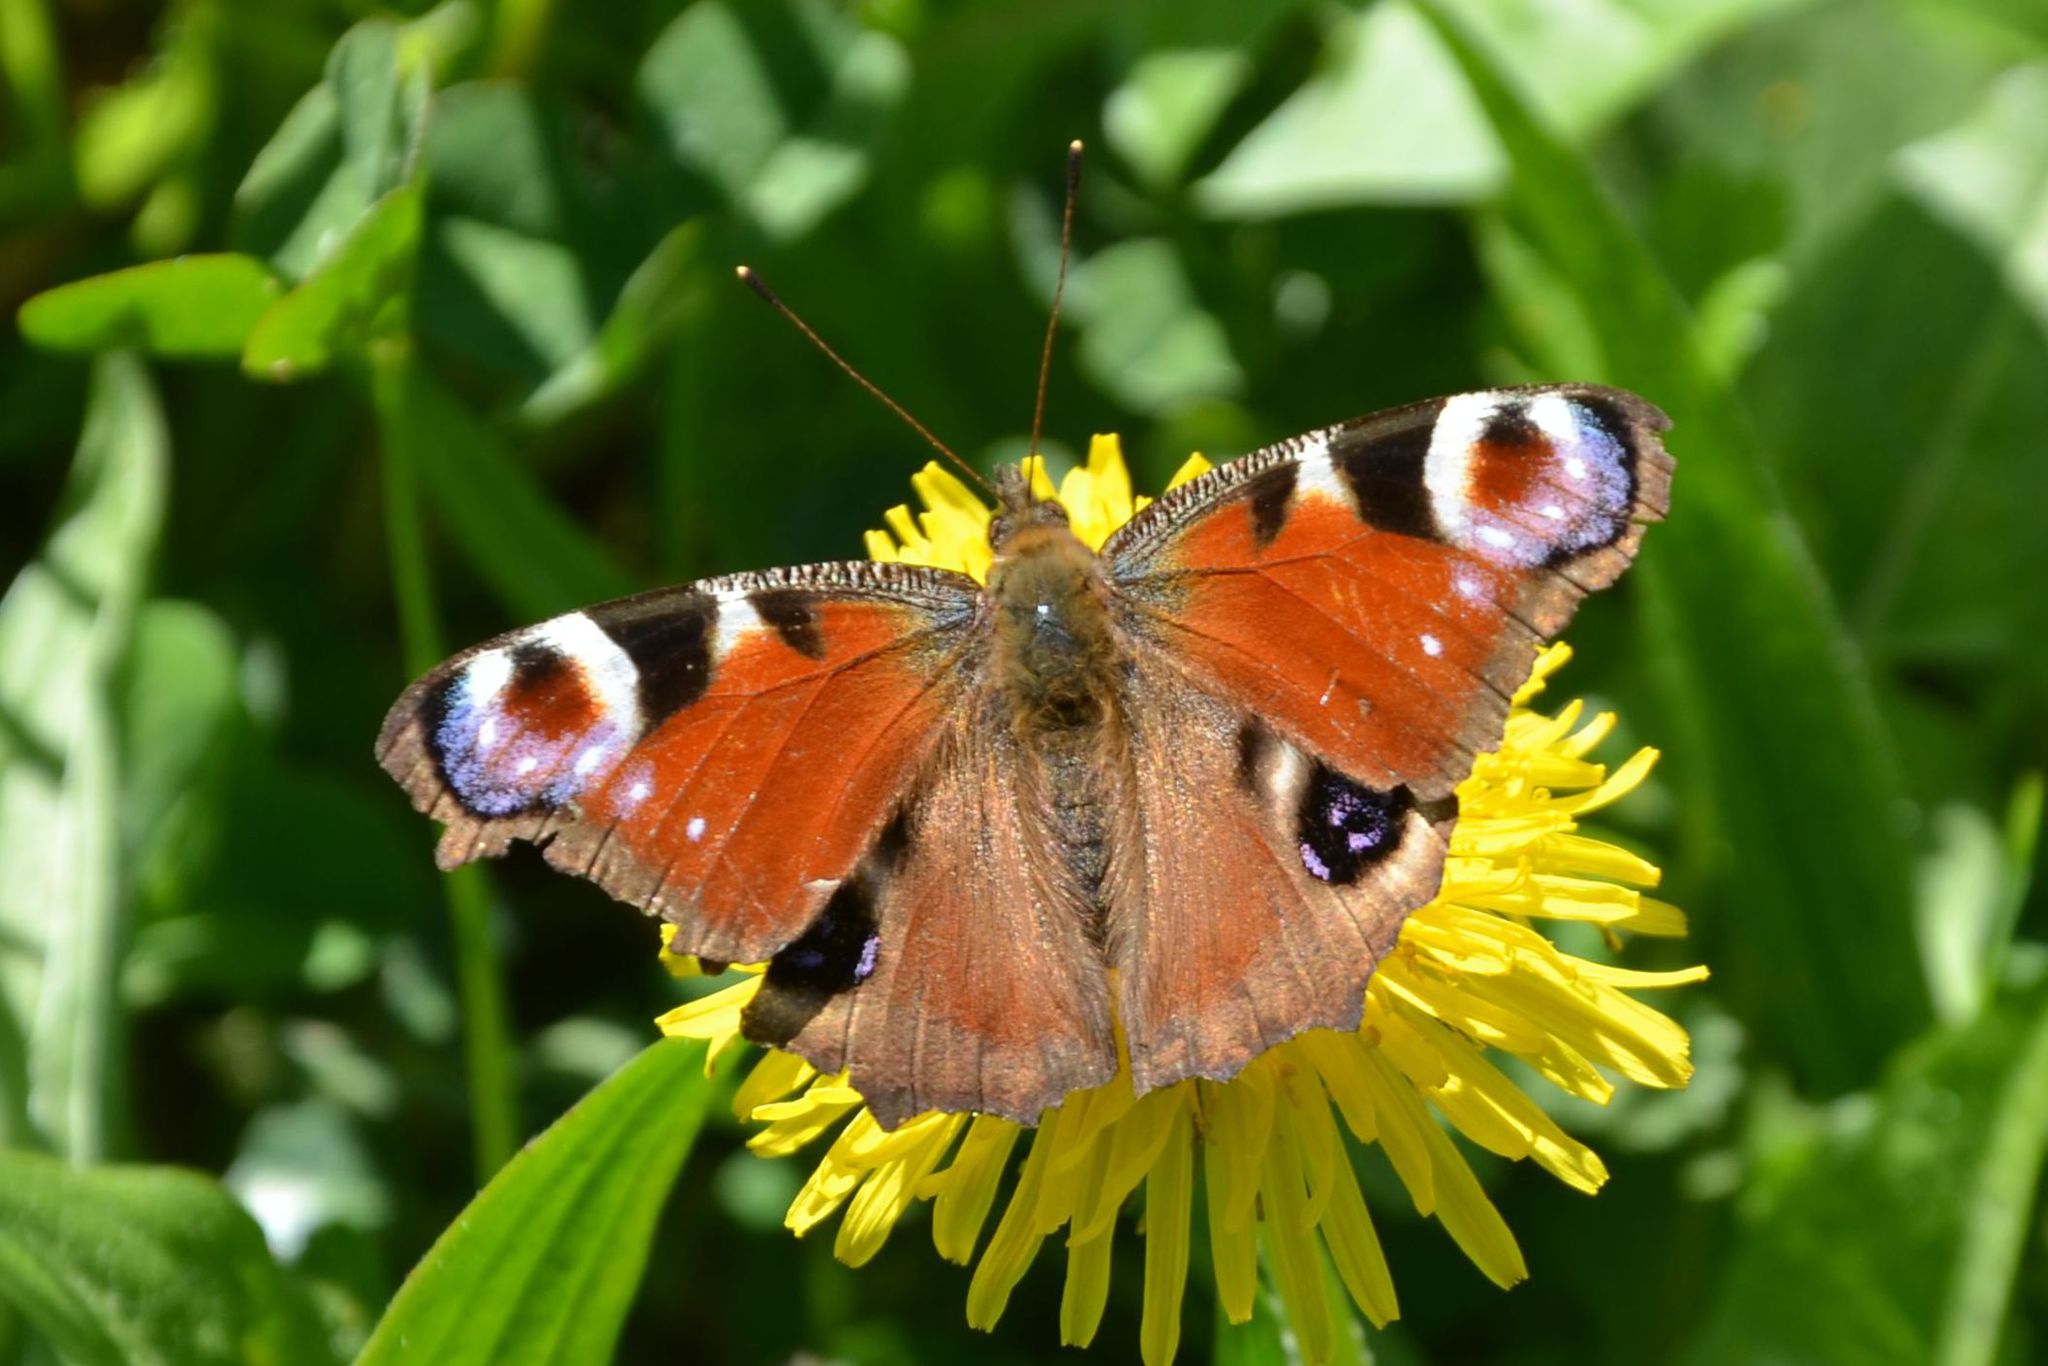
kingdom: Animalia
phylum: Arthropoda
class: Insecta
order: Lepidoptera
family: Nymphalidae
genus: Aglais
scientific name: Aglais io
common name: Peacock
